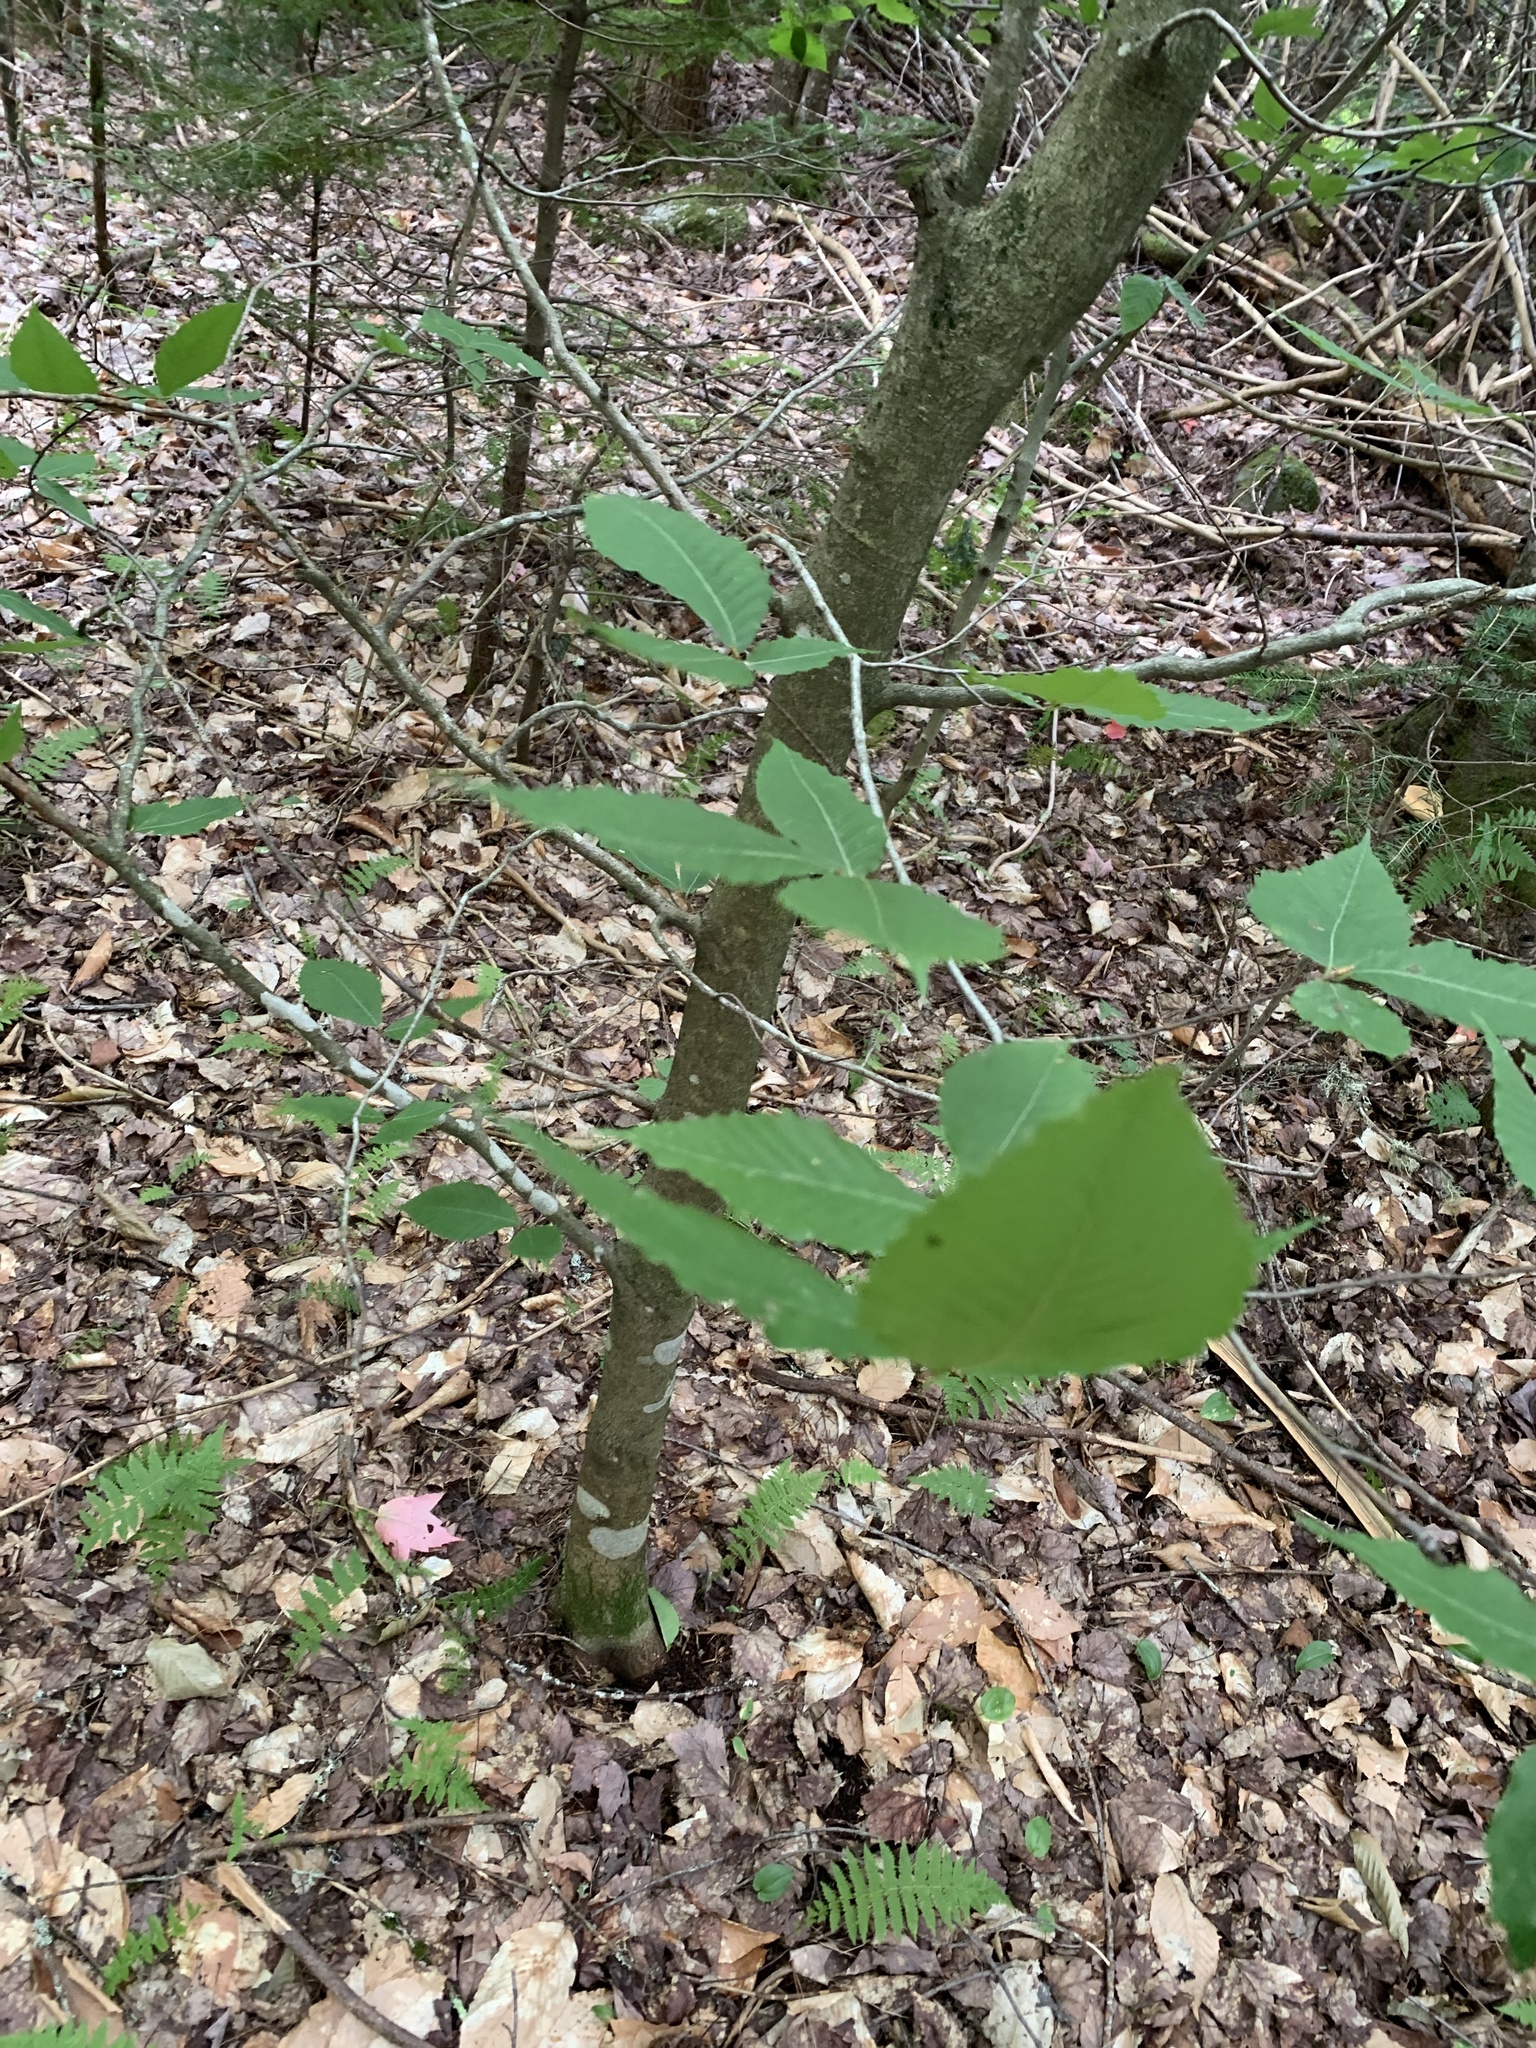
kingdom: Plantae
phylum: Tracheophyta
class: Magnoliopsida
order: Fagales
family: Fagaceae
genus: Fagus
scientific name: Fagus grandifolia
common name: American beech
